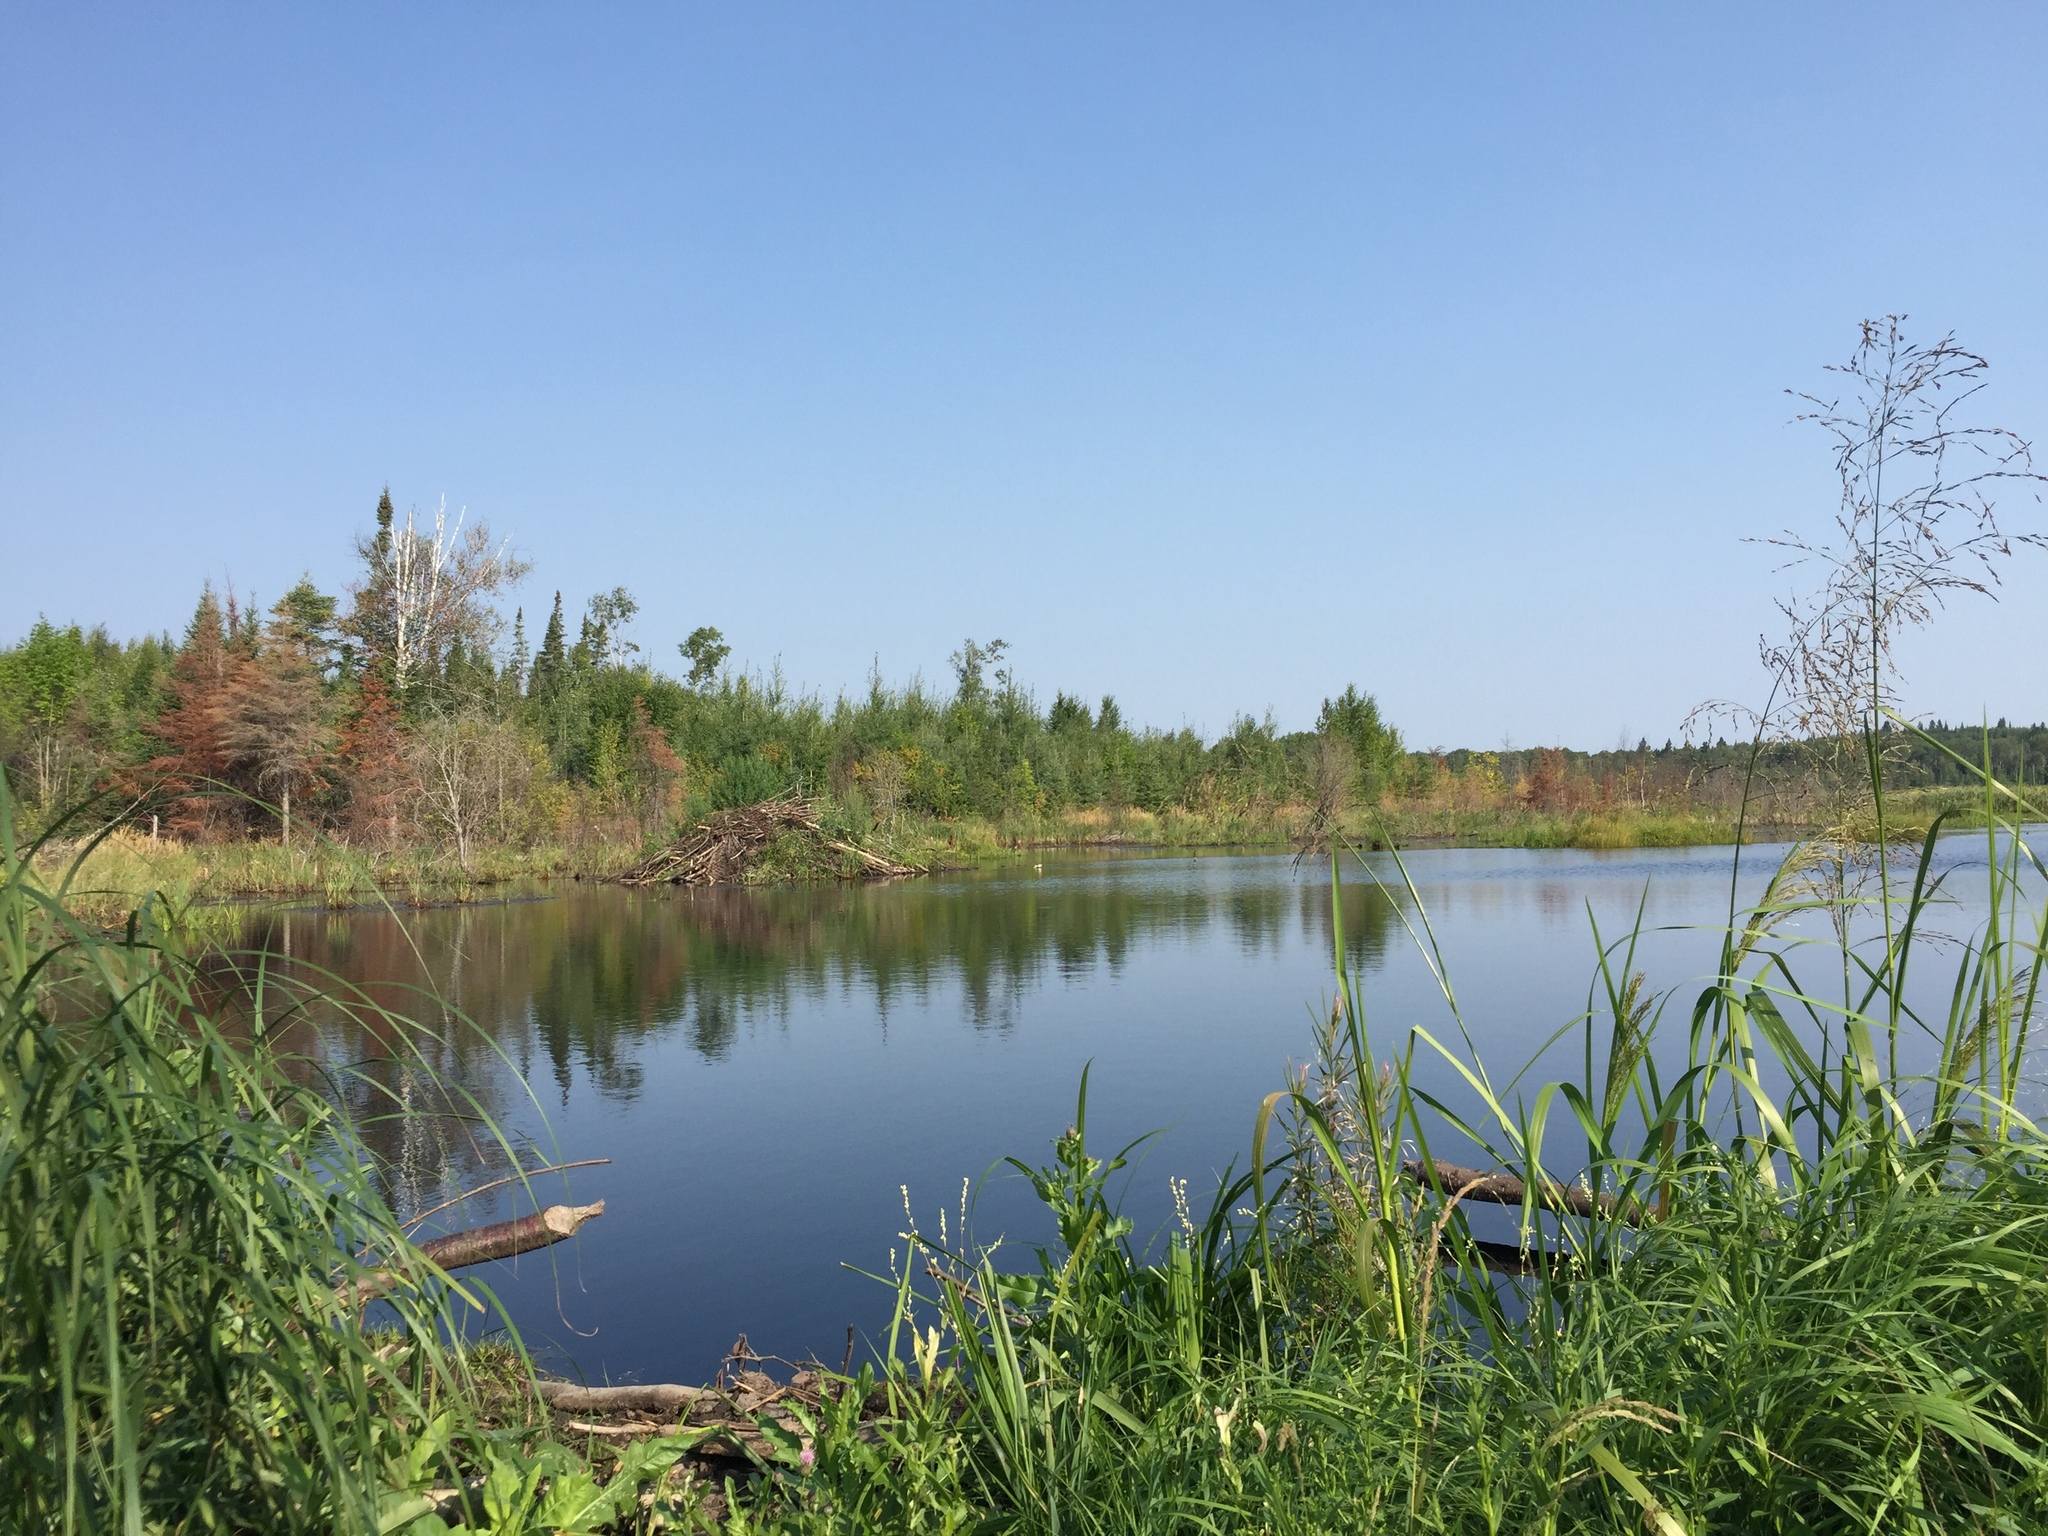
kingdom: Animalia
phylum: Chordata
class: Mammalia
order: Rodentia
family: Castoridae
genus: Castor
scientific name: Castor canadensis
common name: American beaver
